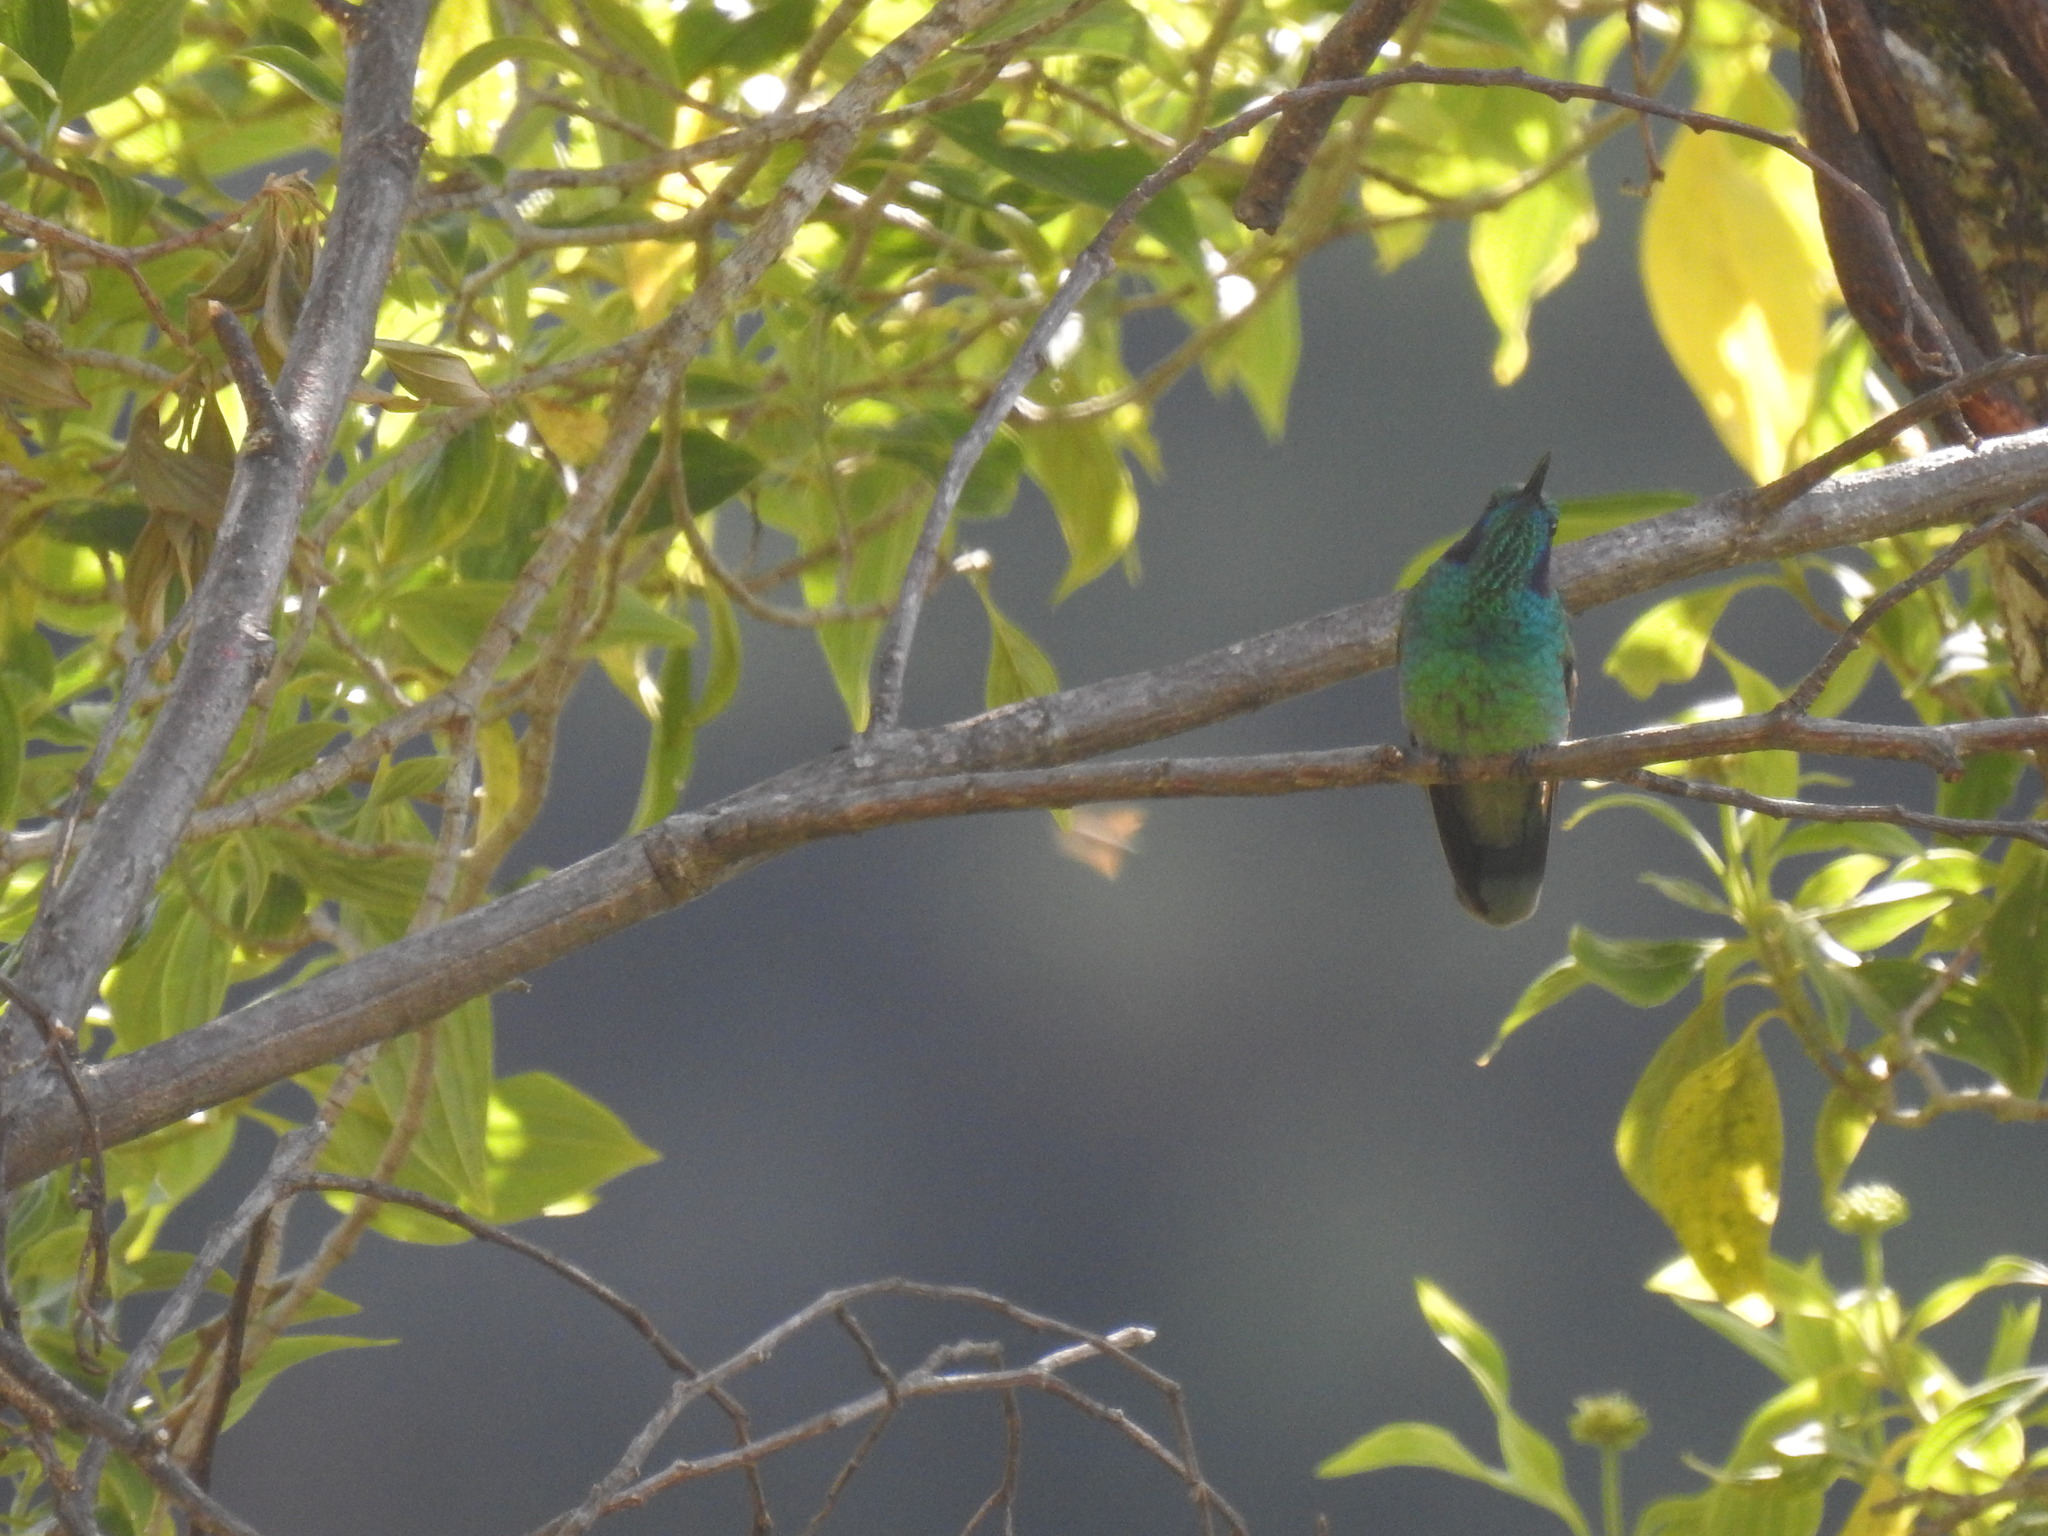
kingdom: Animalia
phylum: Chordata
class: Aves
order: Apodiformes
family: Trochilidae
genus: Colibri
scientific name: Colibri cyanotus
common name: Lesser violetear
